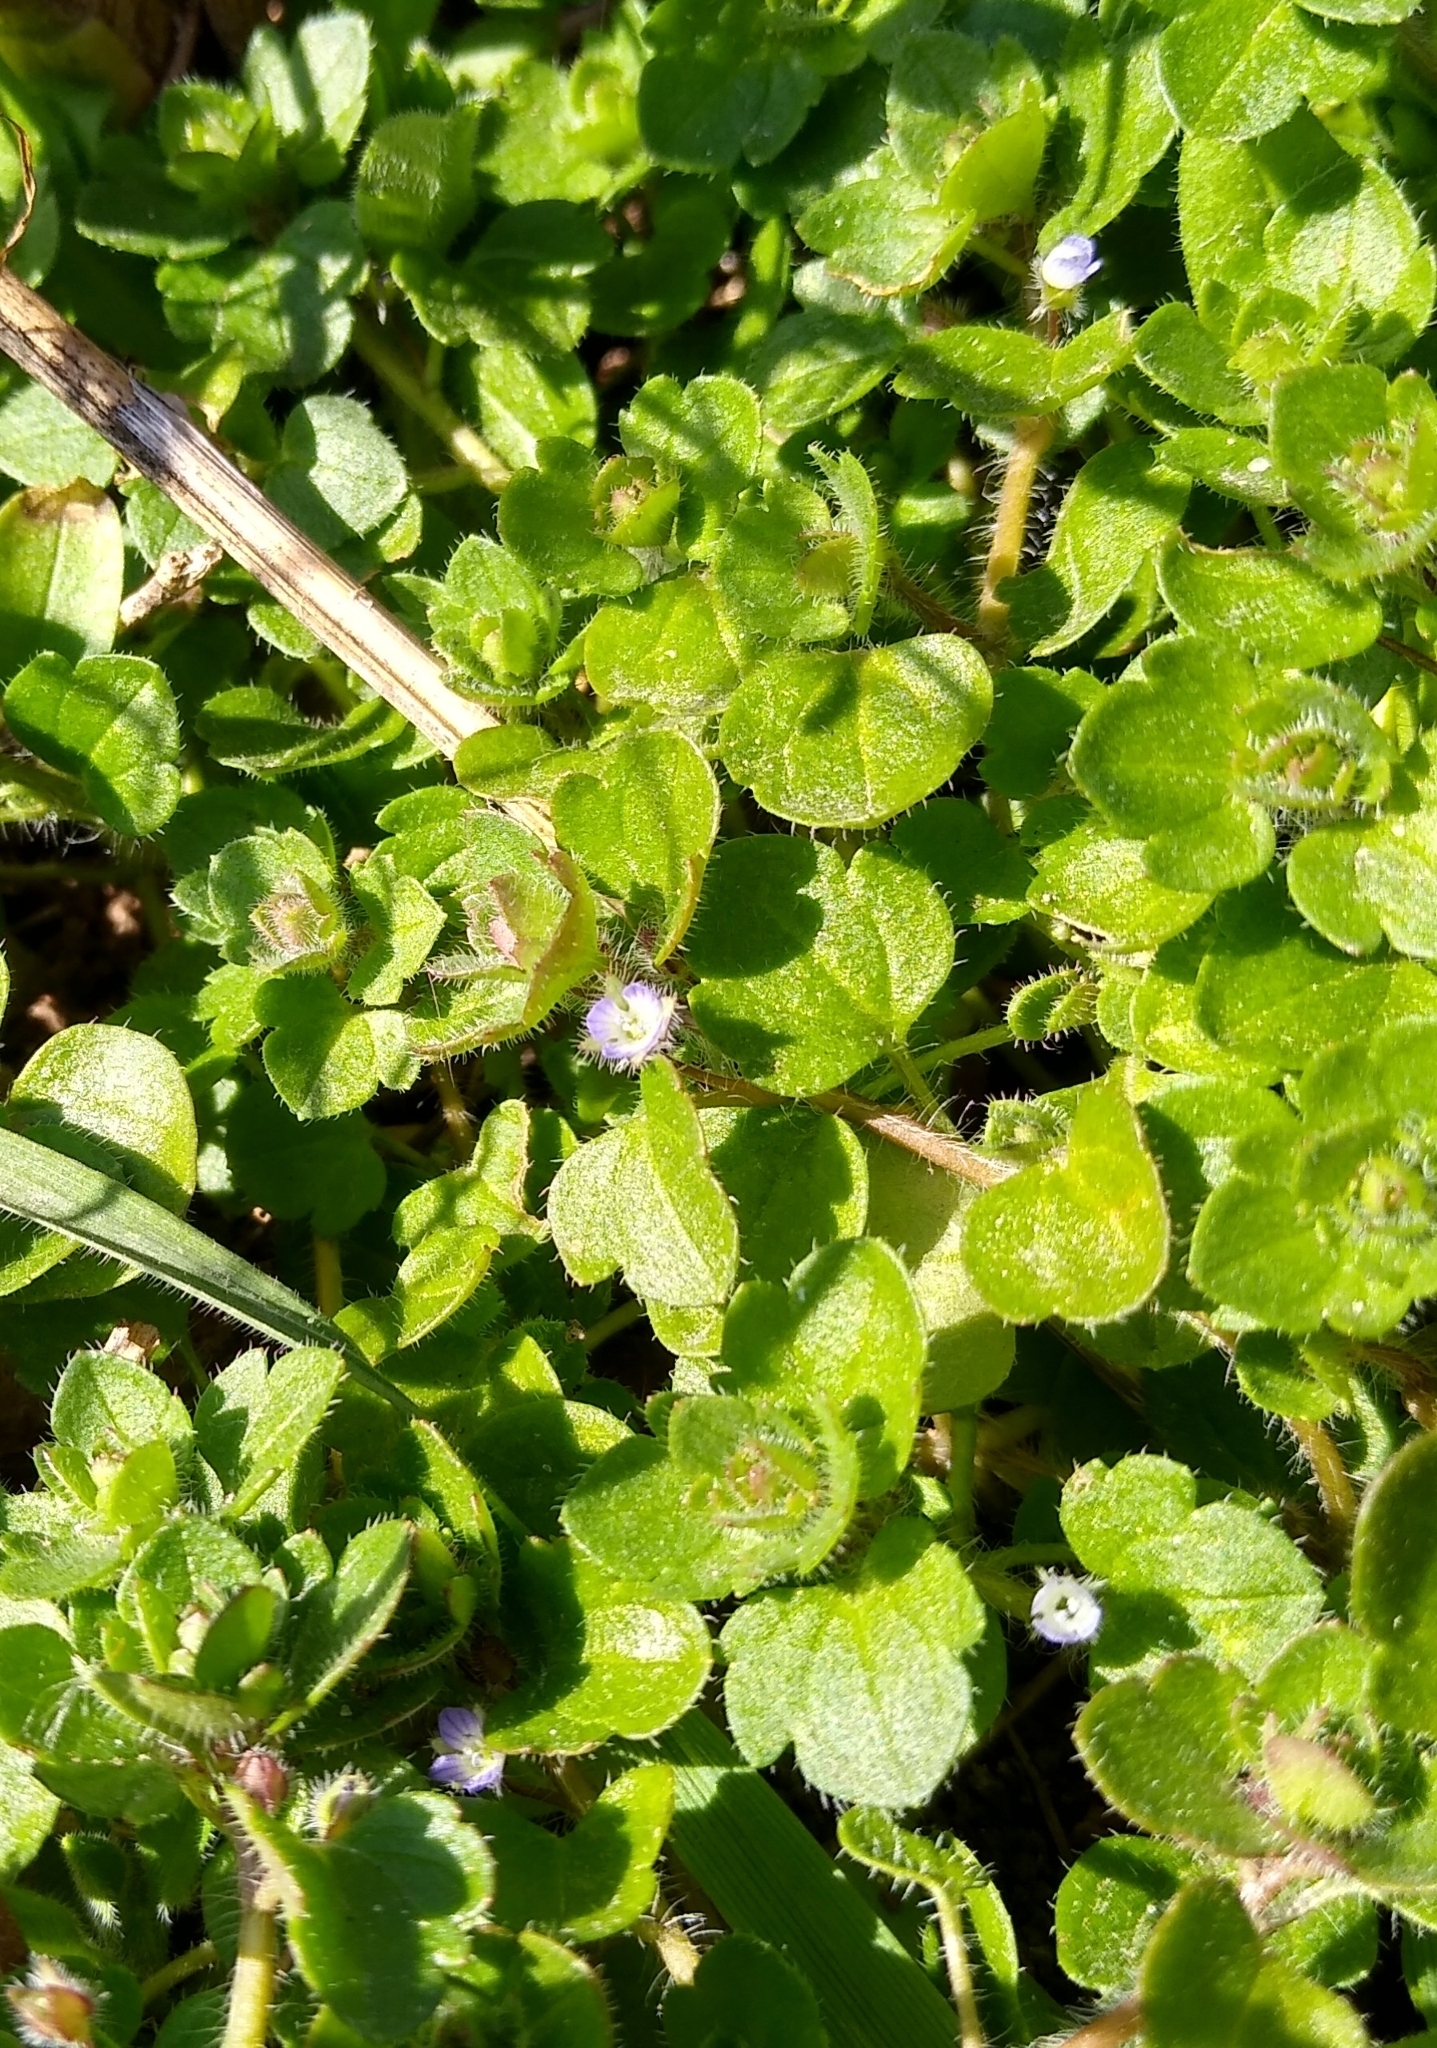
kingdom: Plantae
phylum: Tracheophyta
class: Magnoliopsida
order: Lamiales
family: Plantaginaceae
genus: Veronica
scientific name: Veronica hederifolia
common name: Ivy-leaved speedwell
